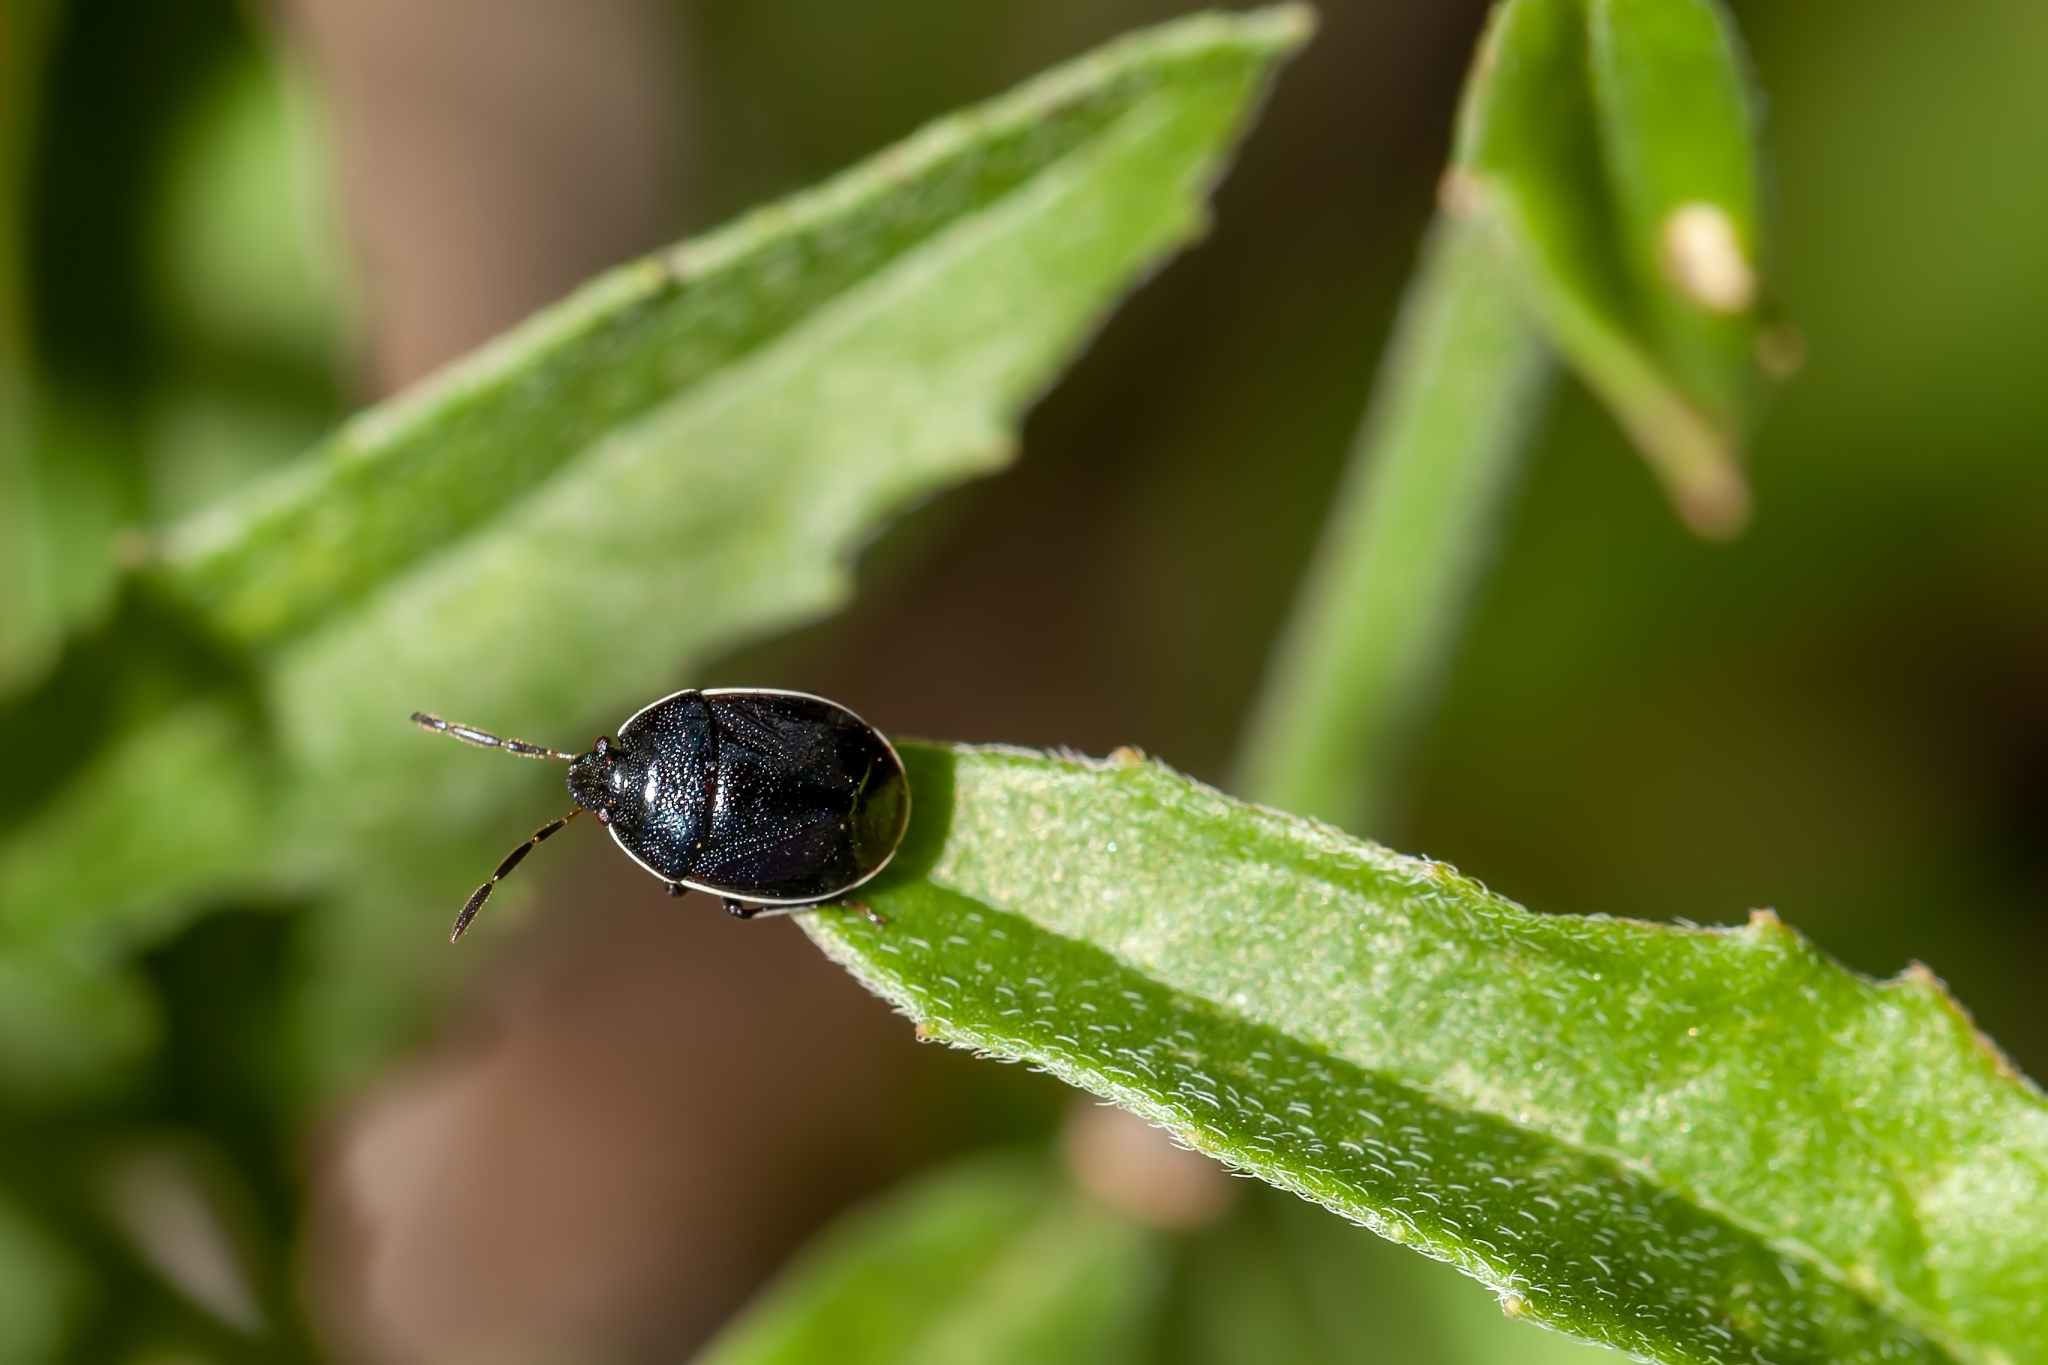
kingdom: Animalia
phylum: Arthropoda
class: Insecta
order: Hemiptera
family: Cydnidae
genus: Sehirus
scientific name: Sehirus cinctus
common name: White-margined burrower bug
